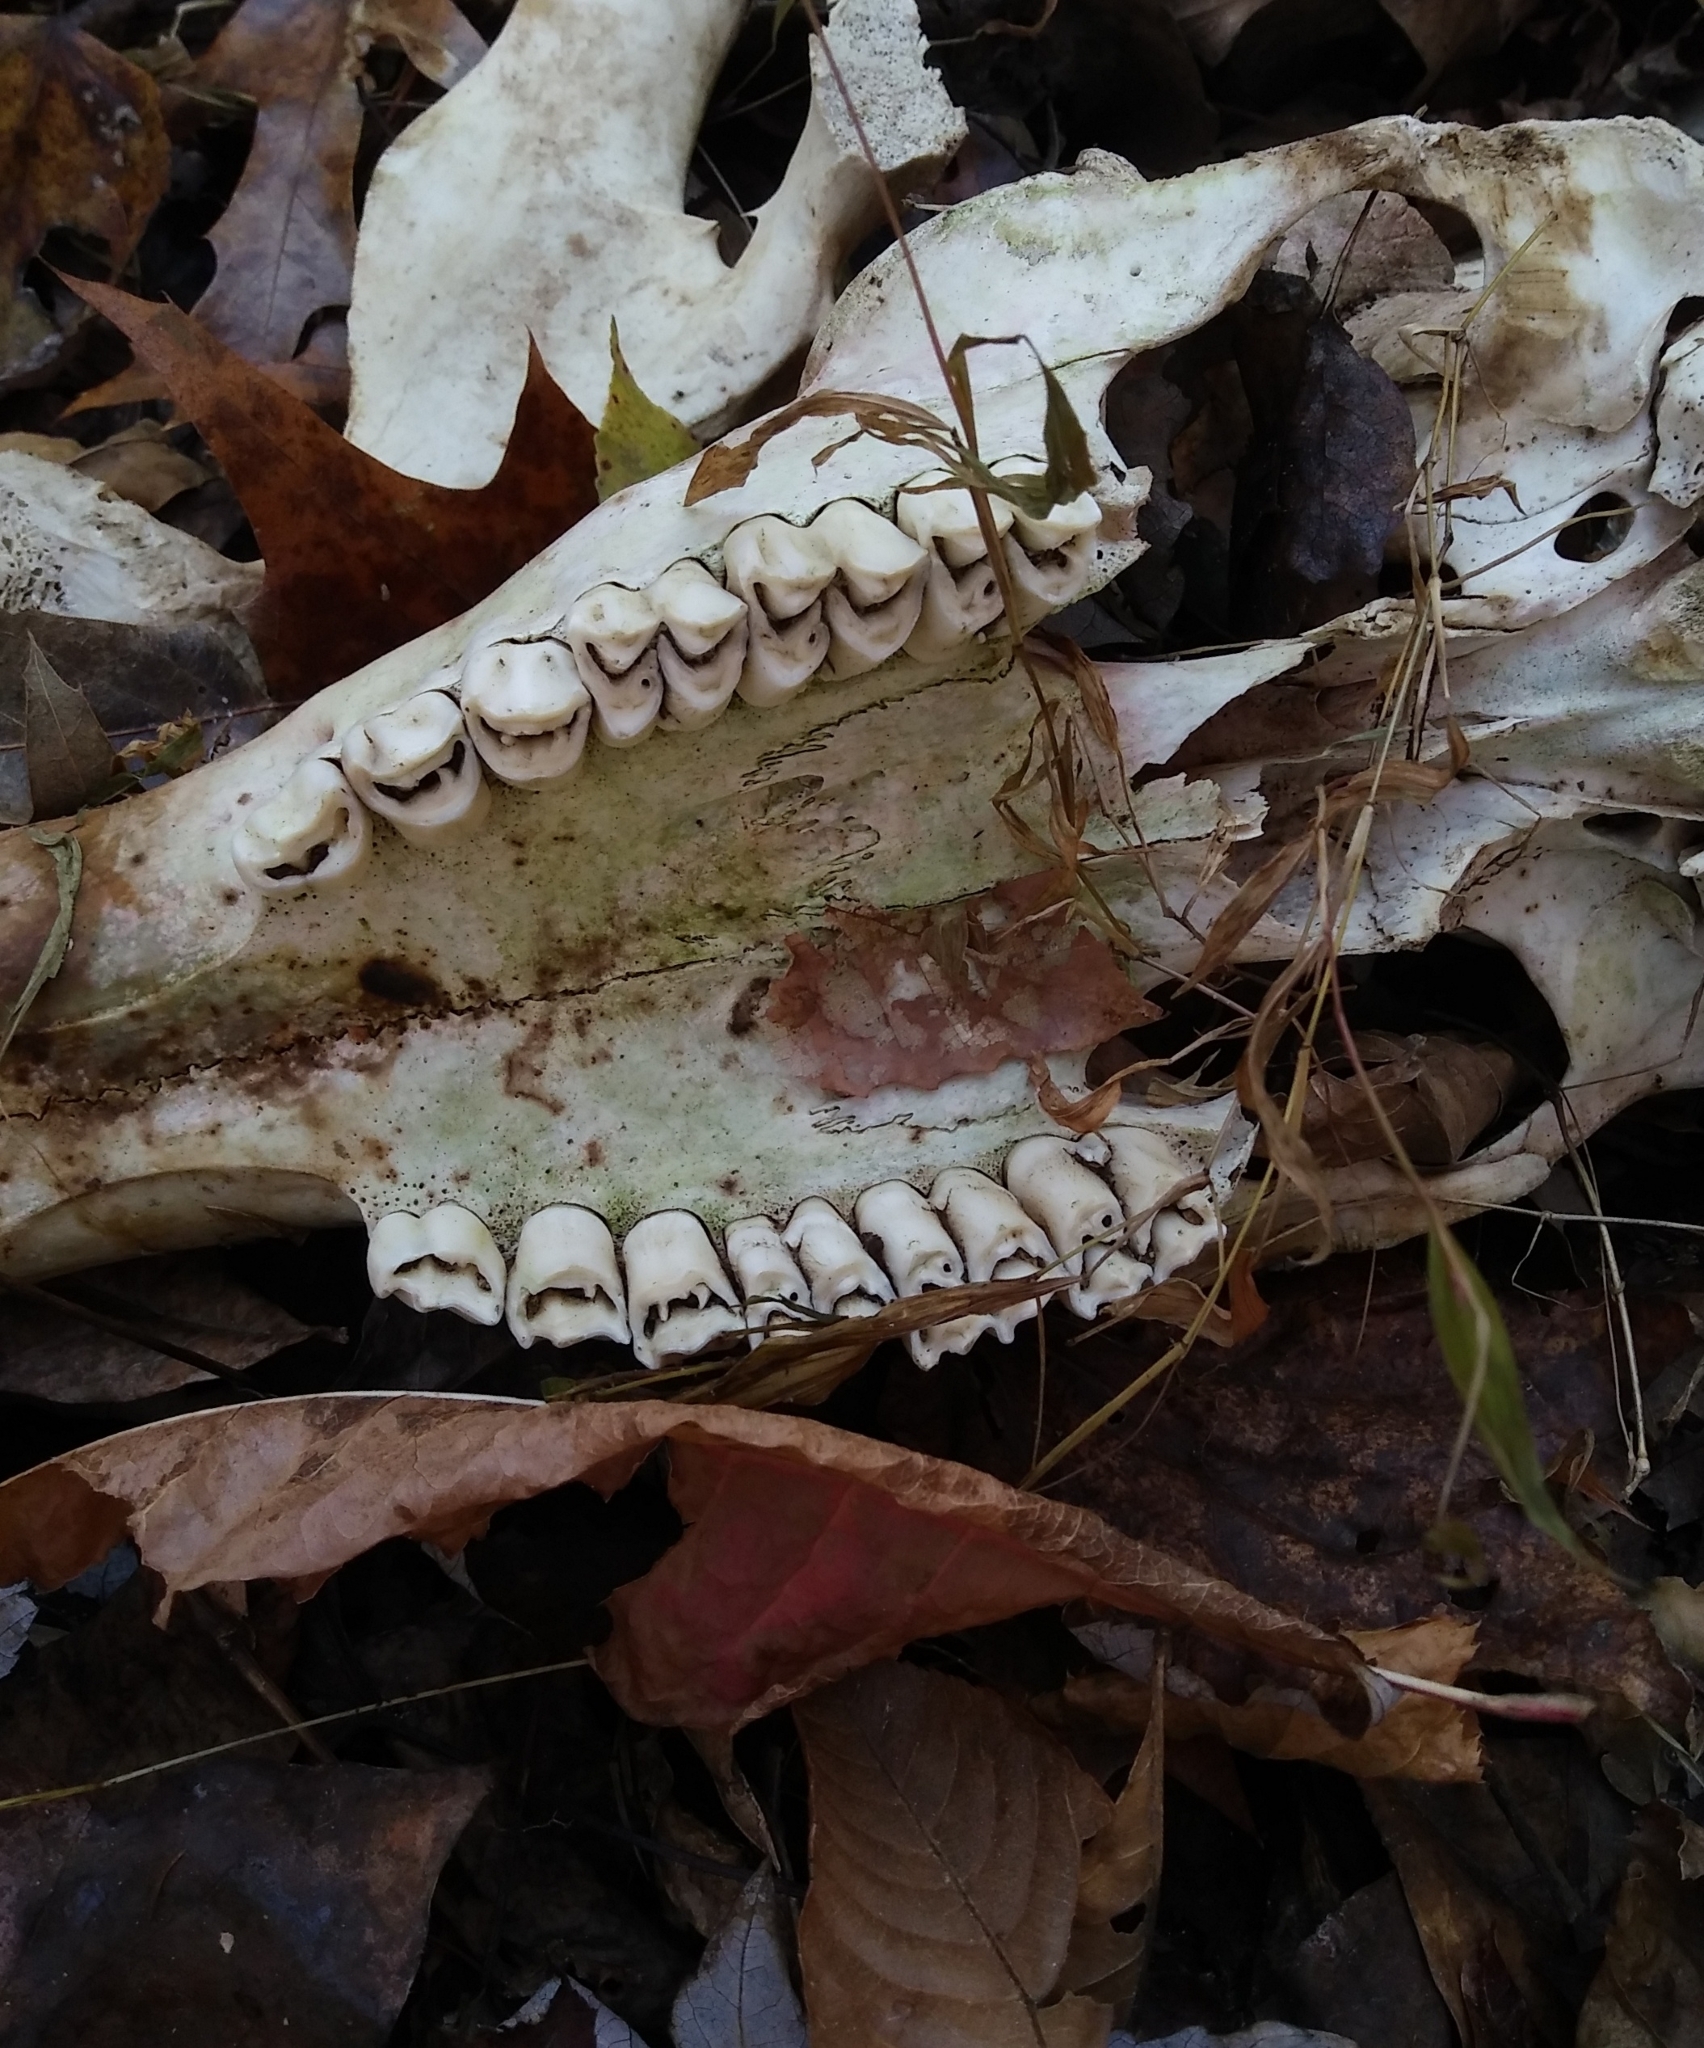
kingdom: Animalia
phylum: Chordata
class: Mammalia
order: Artiodactyla
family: Cervidae
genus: Odocoileus
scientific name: Odocoileus virginianus
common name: White-tailed deer
